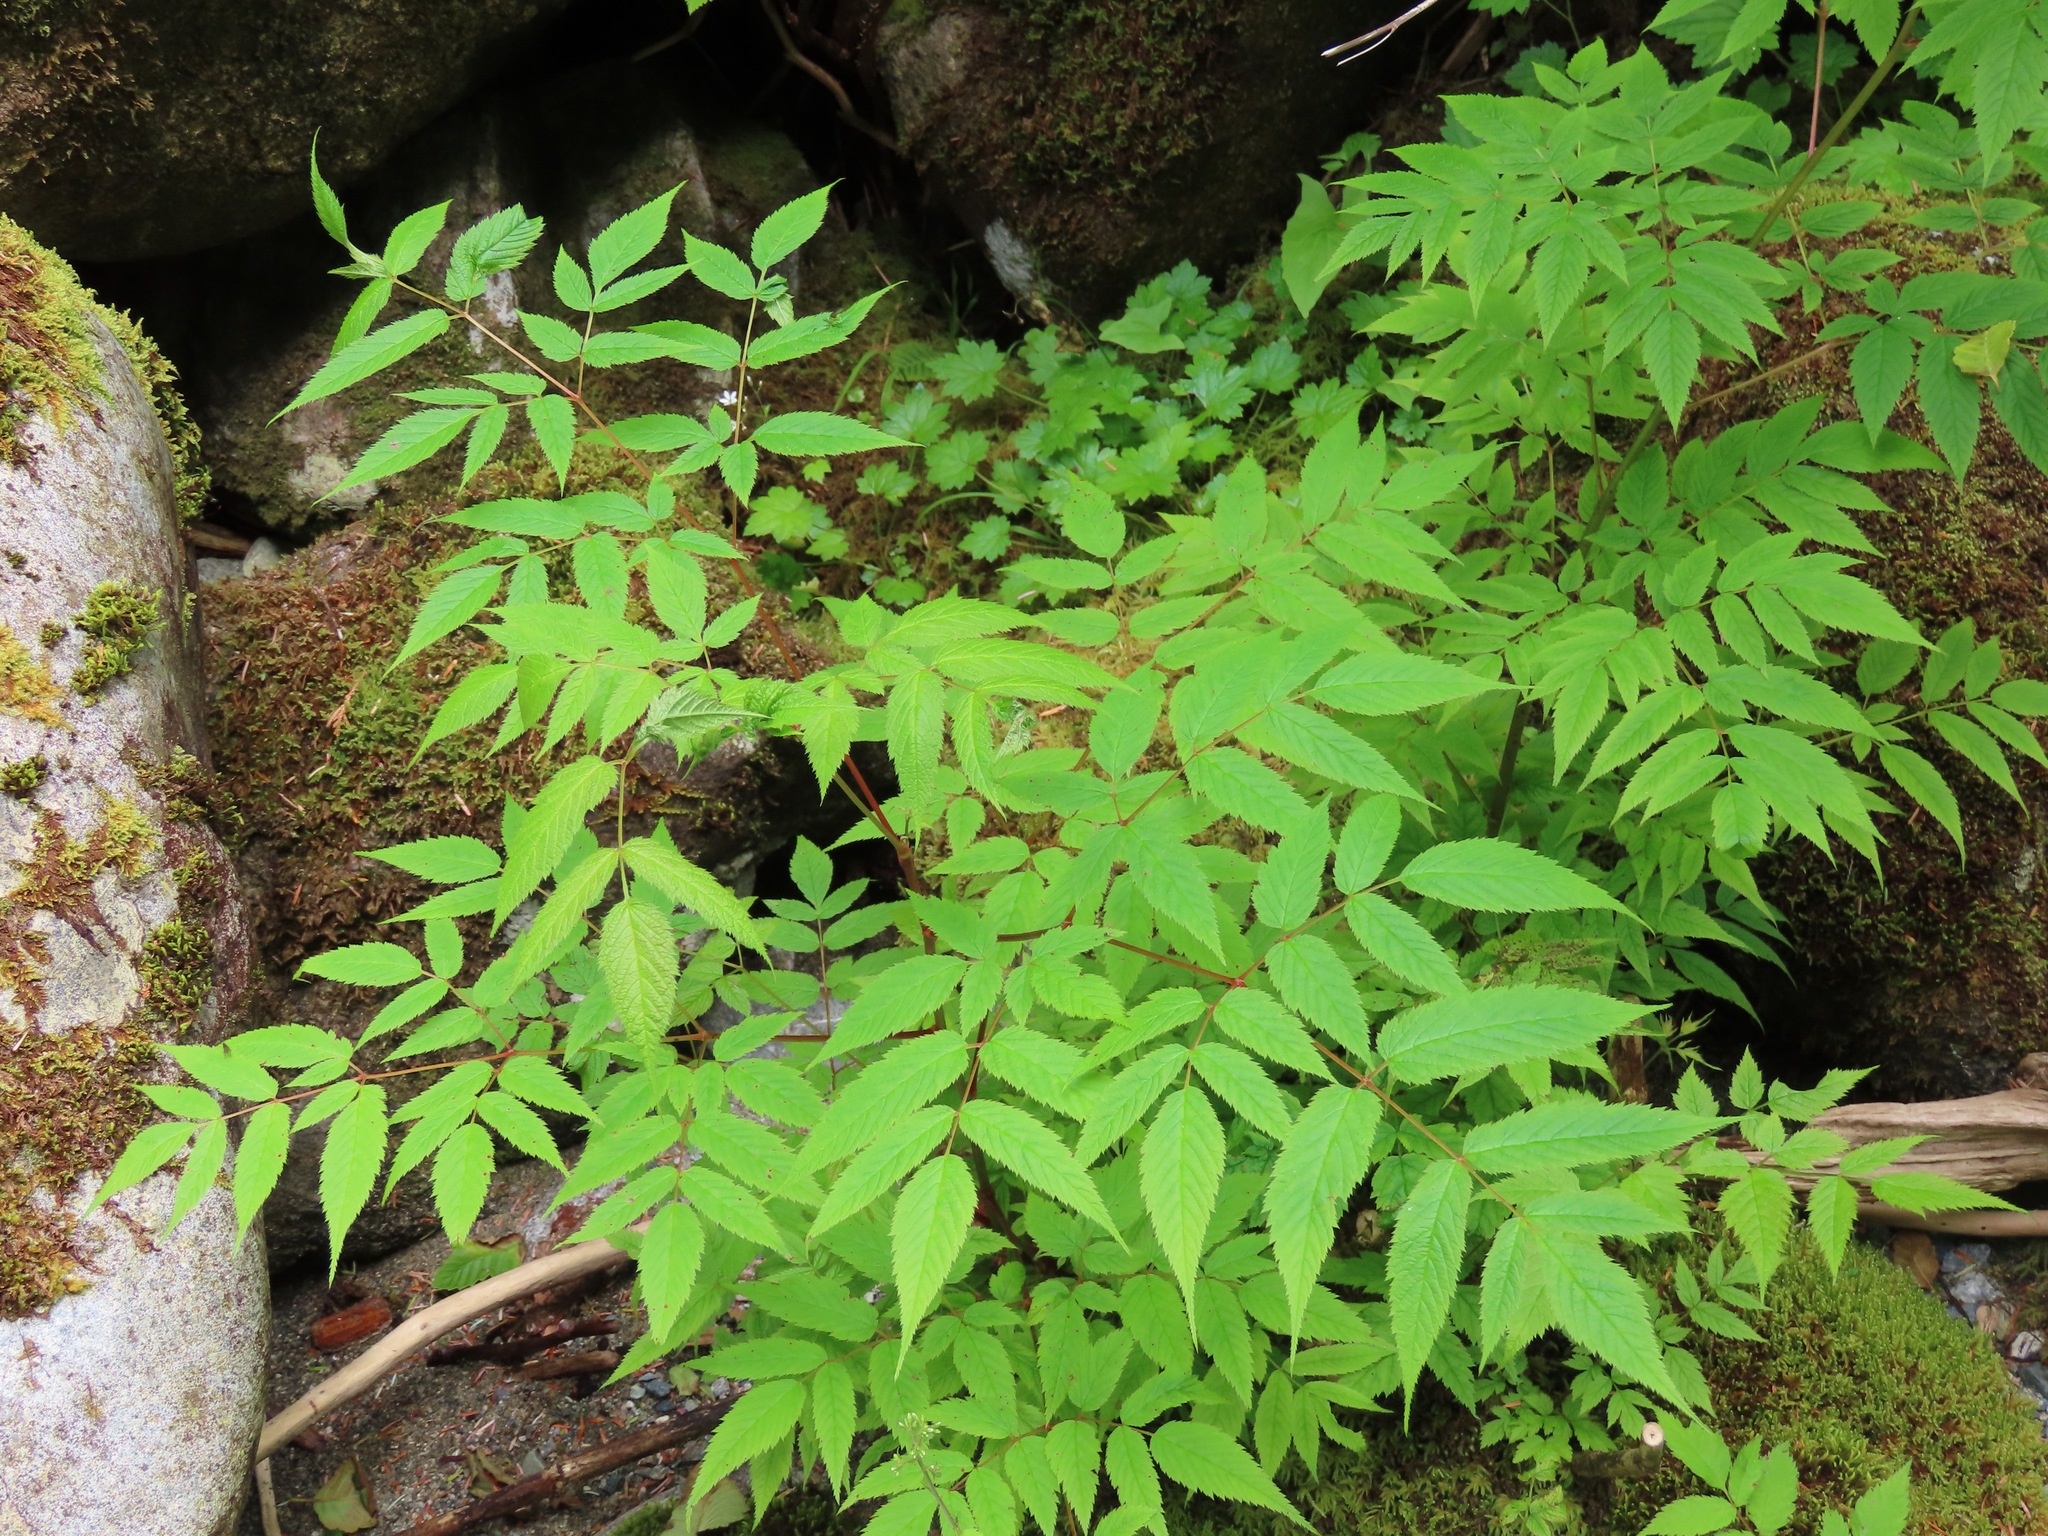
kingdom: Plantae
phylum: Tracheophyta
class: Magnoliopsida
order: Rosales
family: Rosaceae
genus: Aruncus
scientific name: Aruncus dioicus
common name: Buck's-beard
